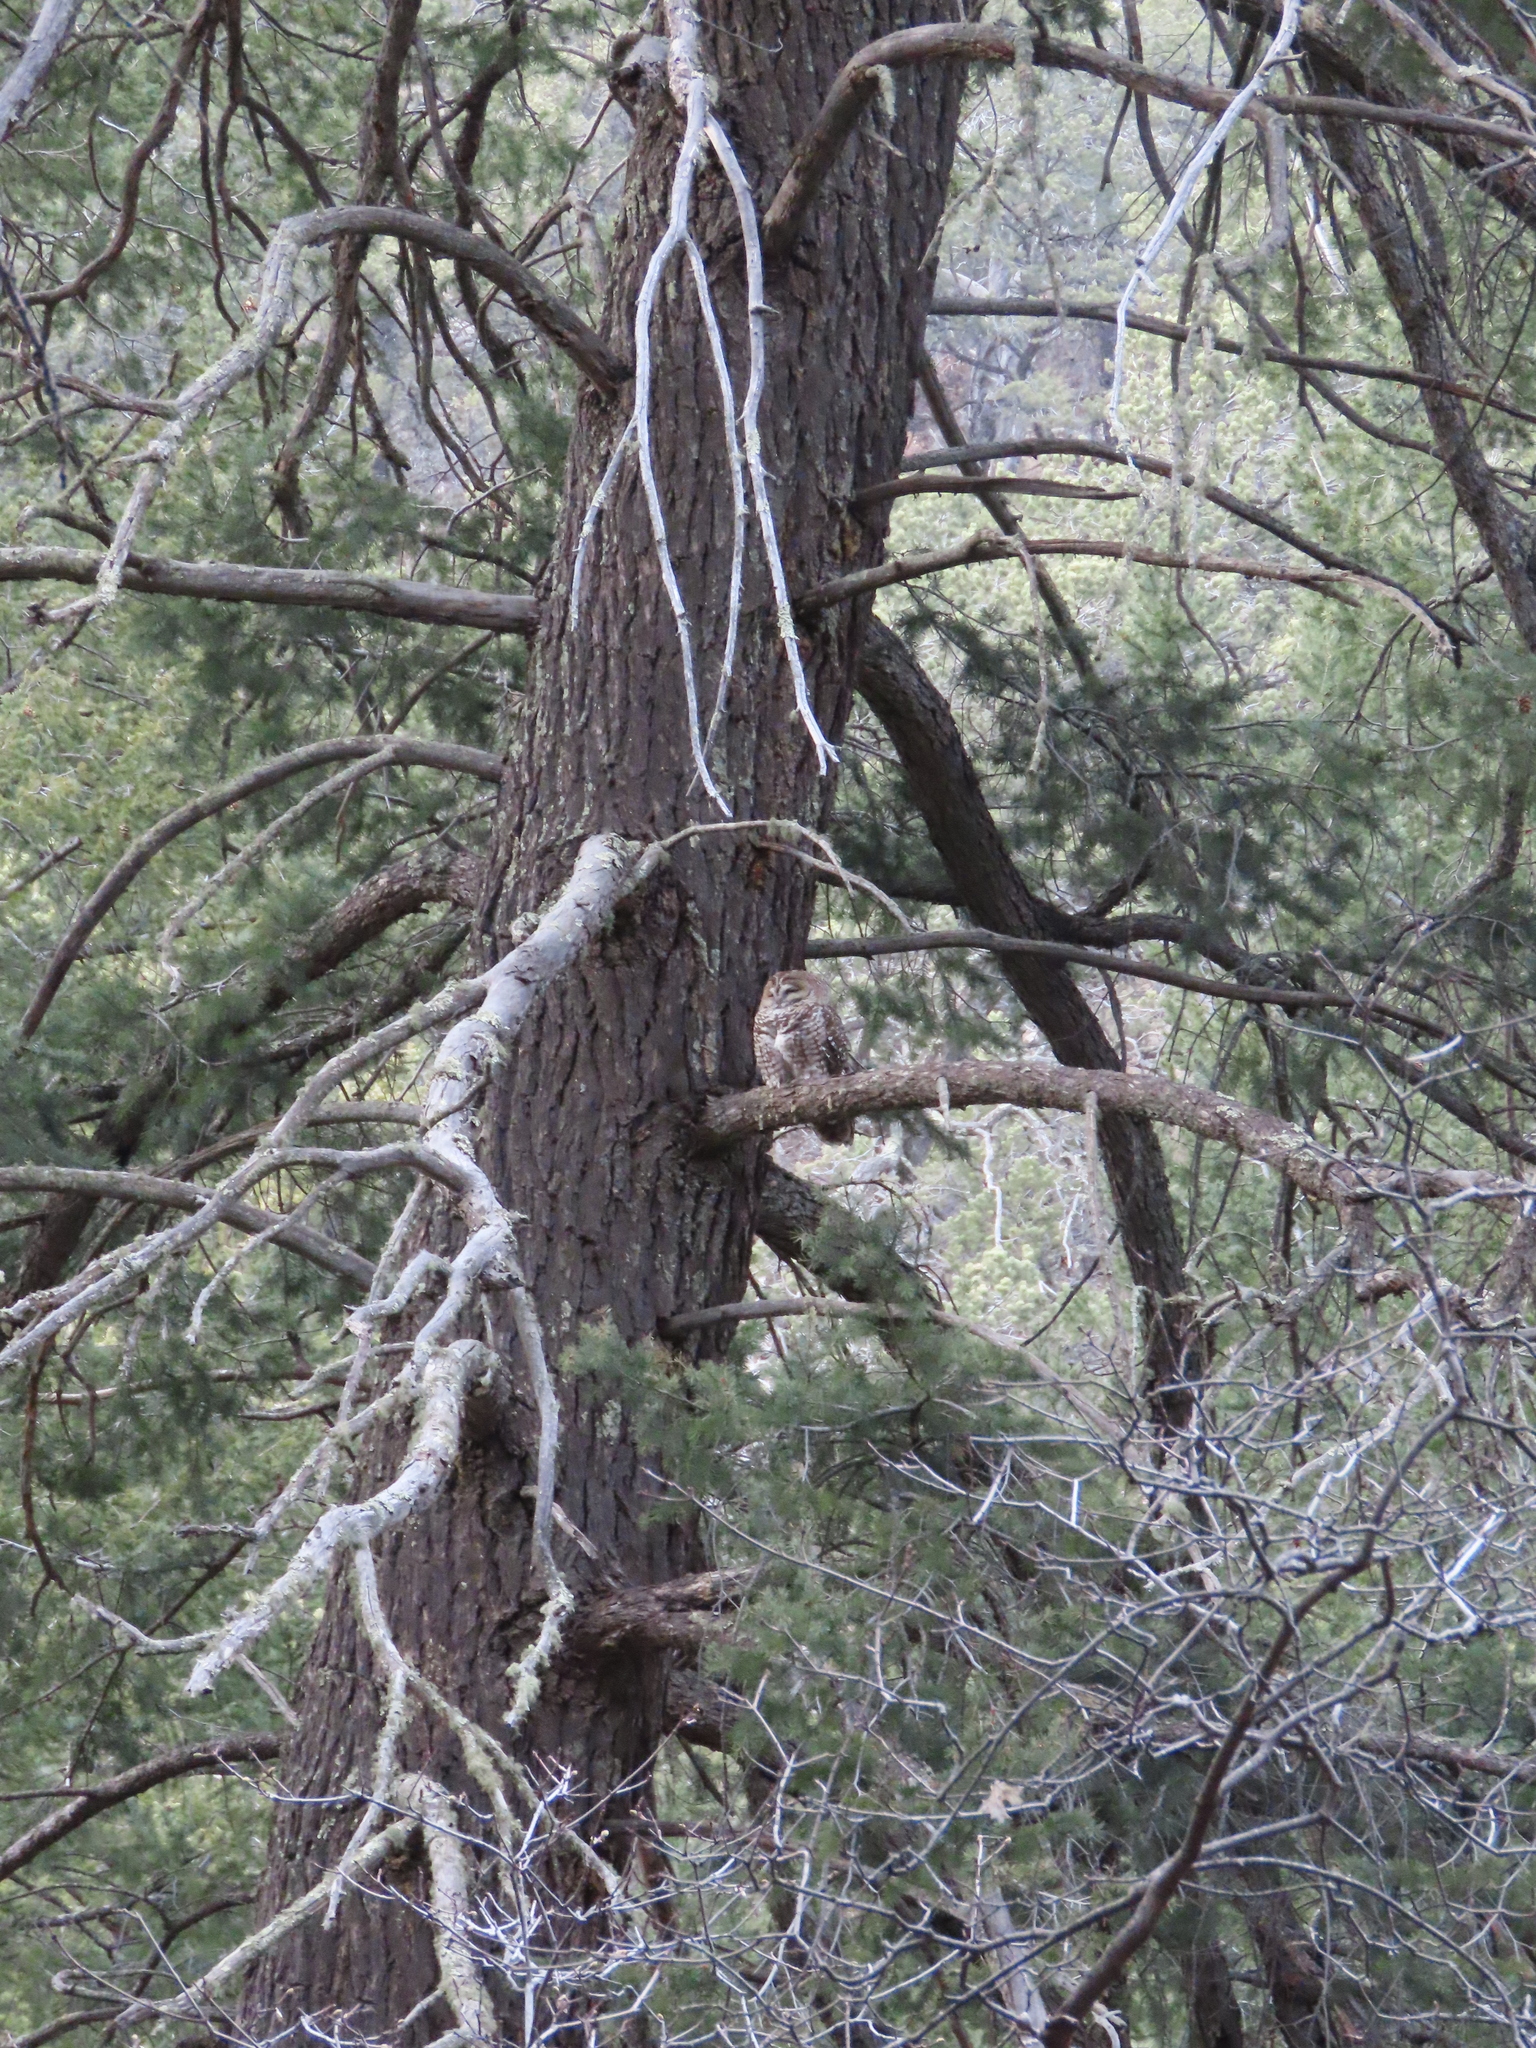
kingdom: Animalia
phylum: Chordata
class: Aves
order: Strigiformes
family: Strigidae
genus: Strix
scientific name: Strix occidentalis
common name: Spotted owl
